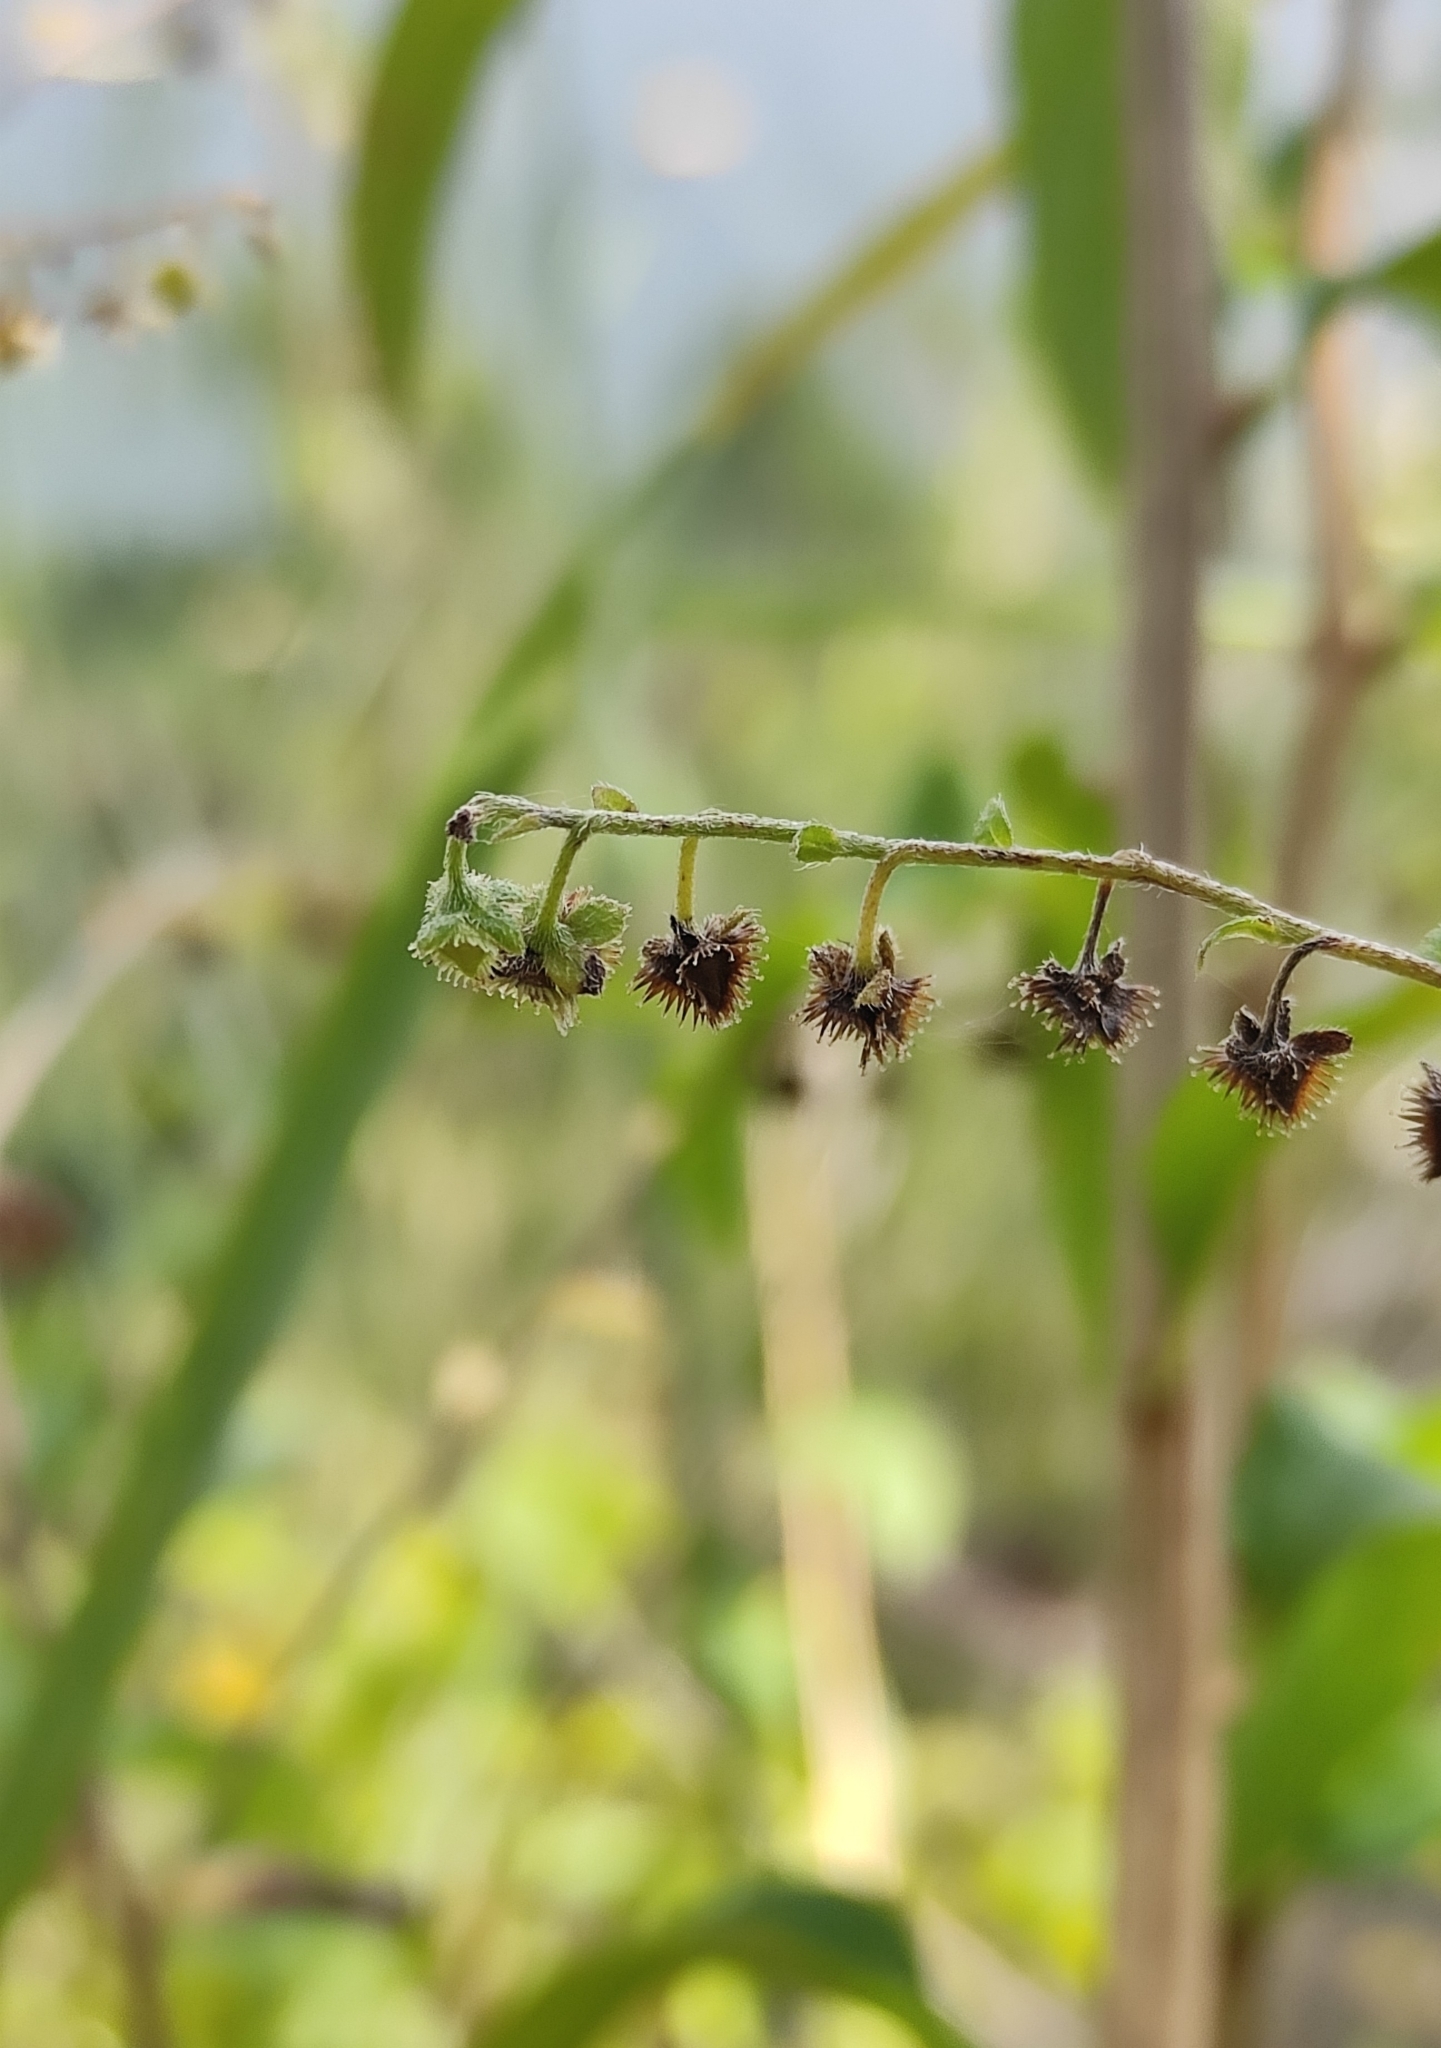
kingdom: Plantae
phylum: Tracheophyta
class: Magnoliopsida
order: Boraginales
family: Boraginaceae
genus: Hackelia
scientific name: Hackelia deflexa
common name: Nodding stickseed
